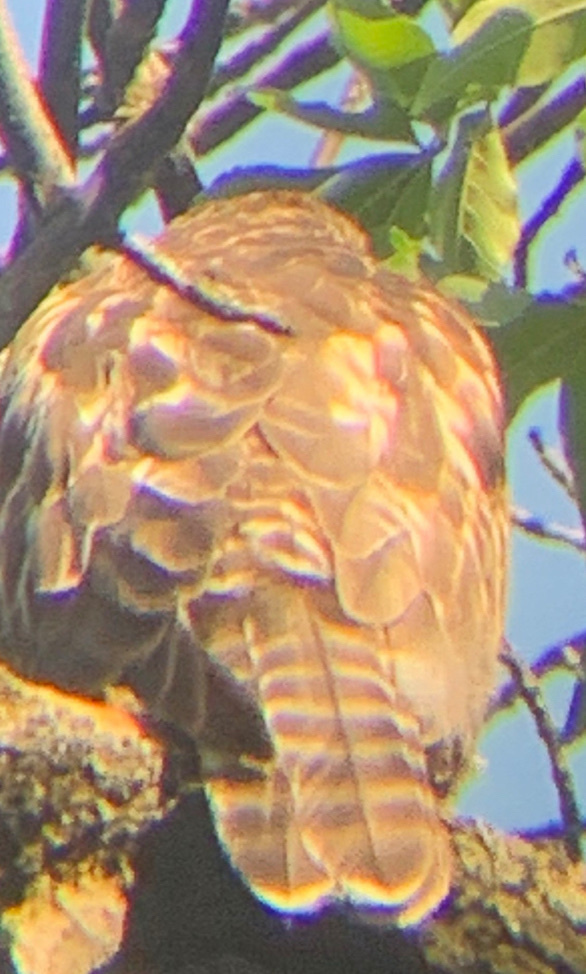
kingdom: Animalia
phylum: Chordata
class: Aves
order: Accipitriformes
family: Accipitridae
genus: Buteo
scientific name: Buteo lineatus
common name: Red-shouldered hawk
